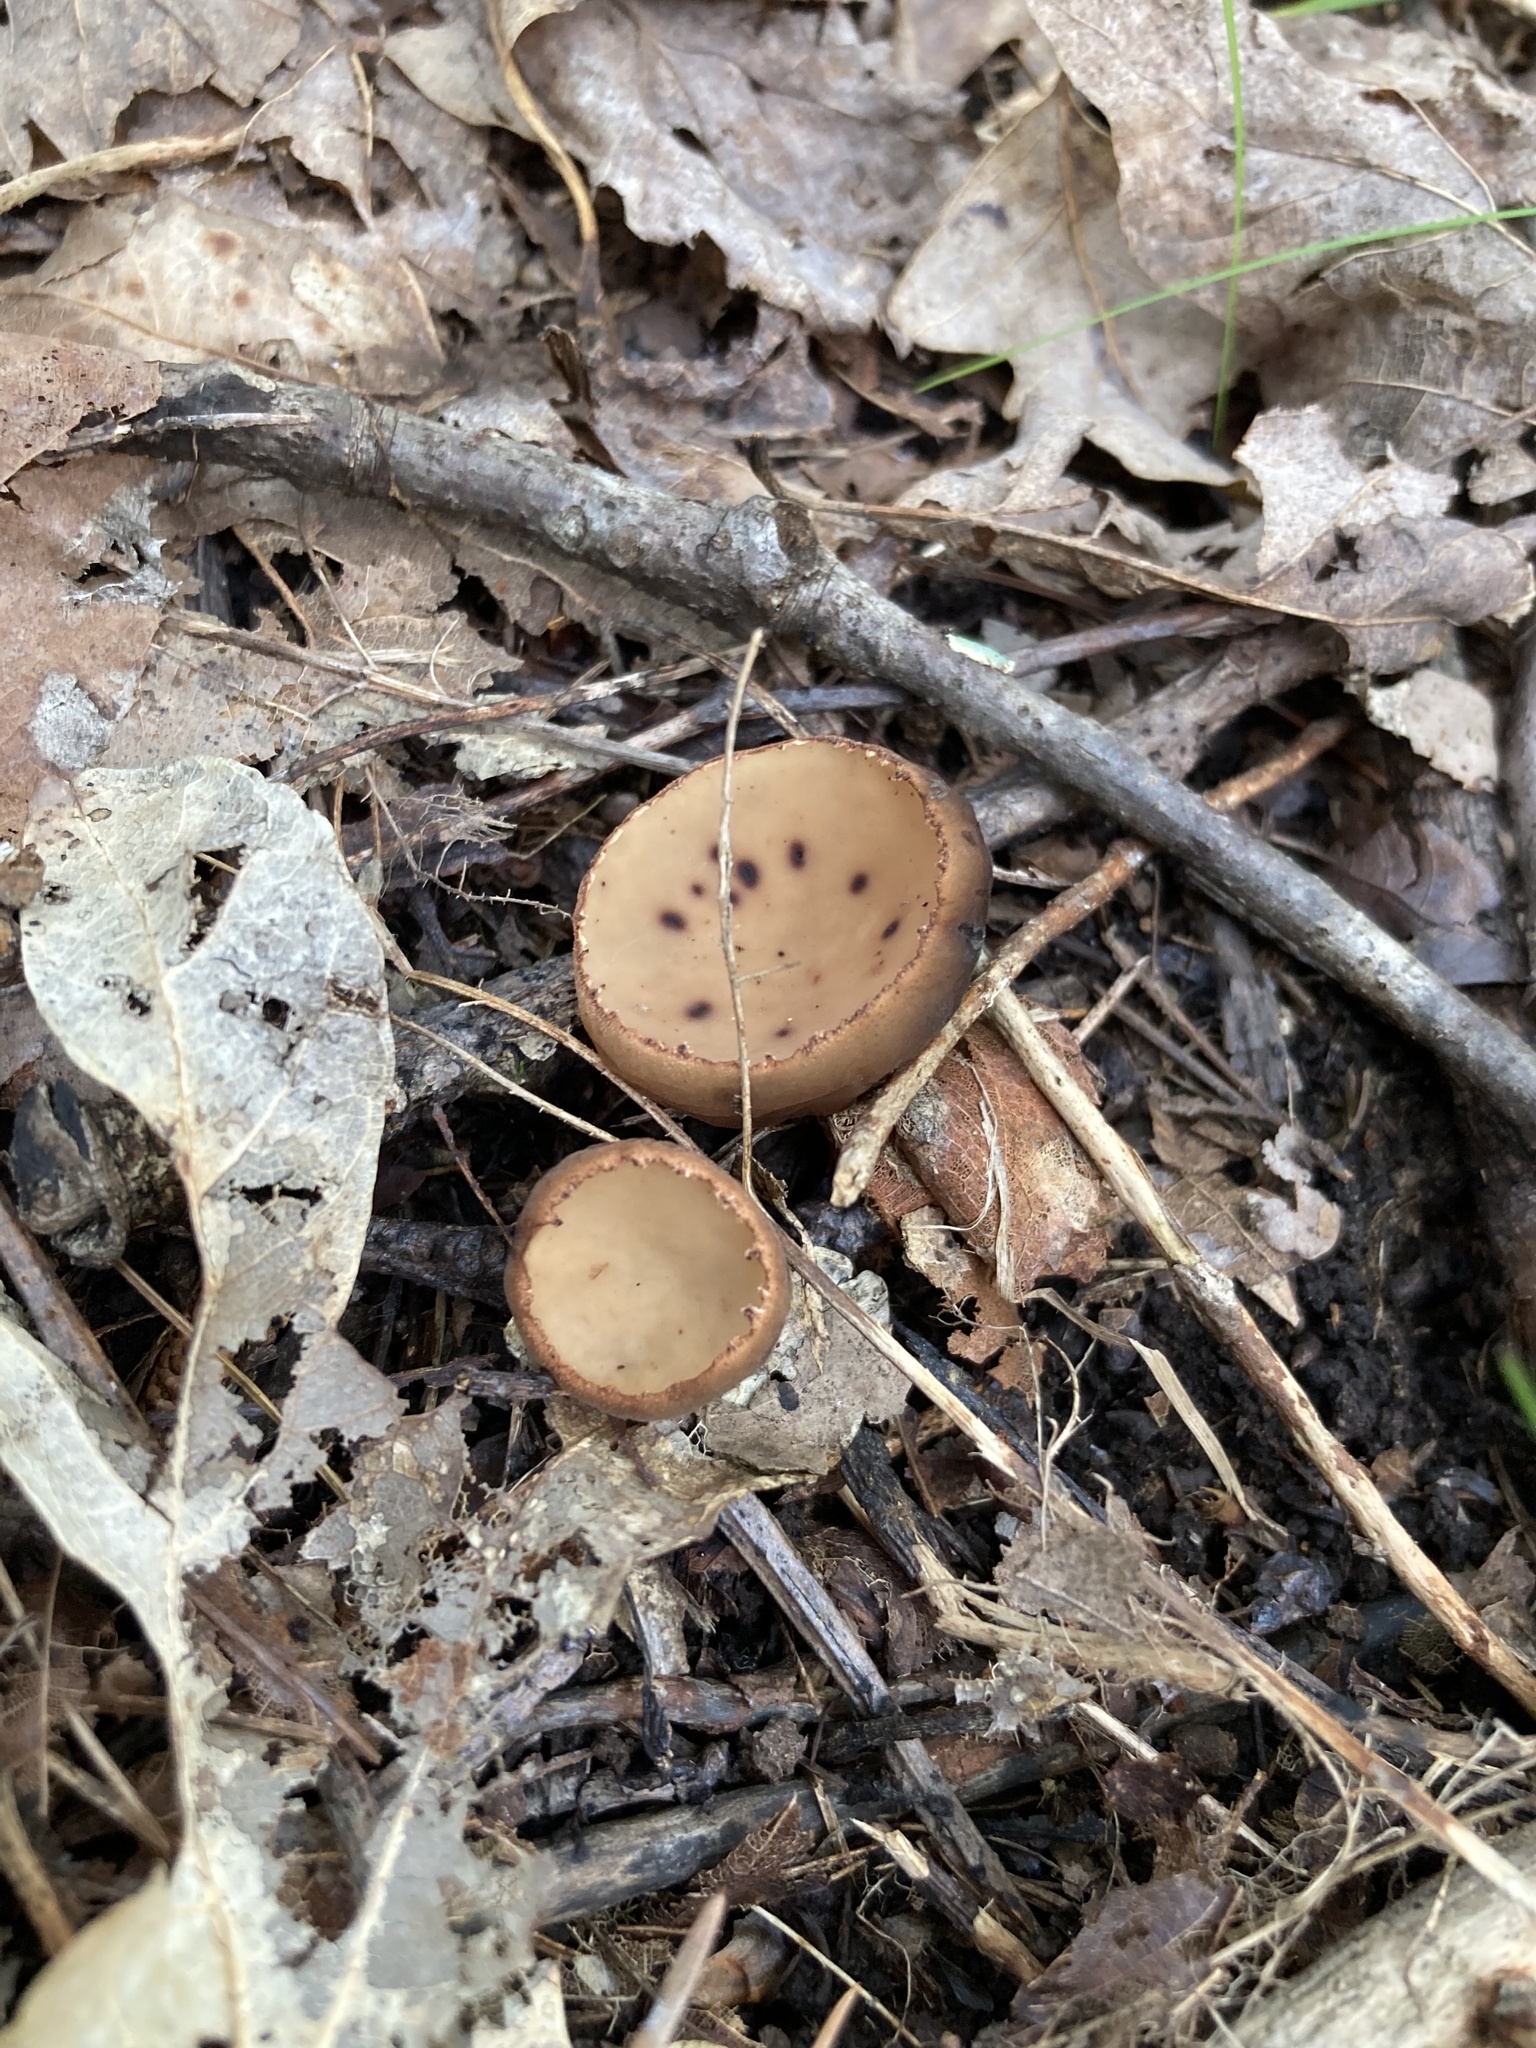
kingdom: Fungi
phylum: Ascomycota
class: Pezizomycetes
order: Pezizales
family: Sarcosomataceae
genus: Galiella
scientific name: Galiella rufa
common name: Hairy rubber cup
